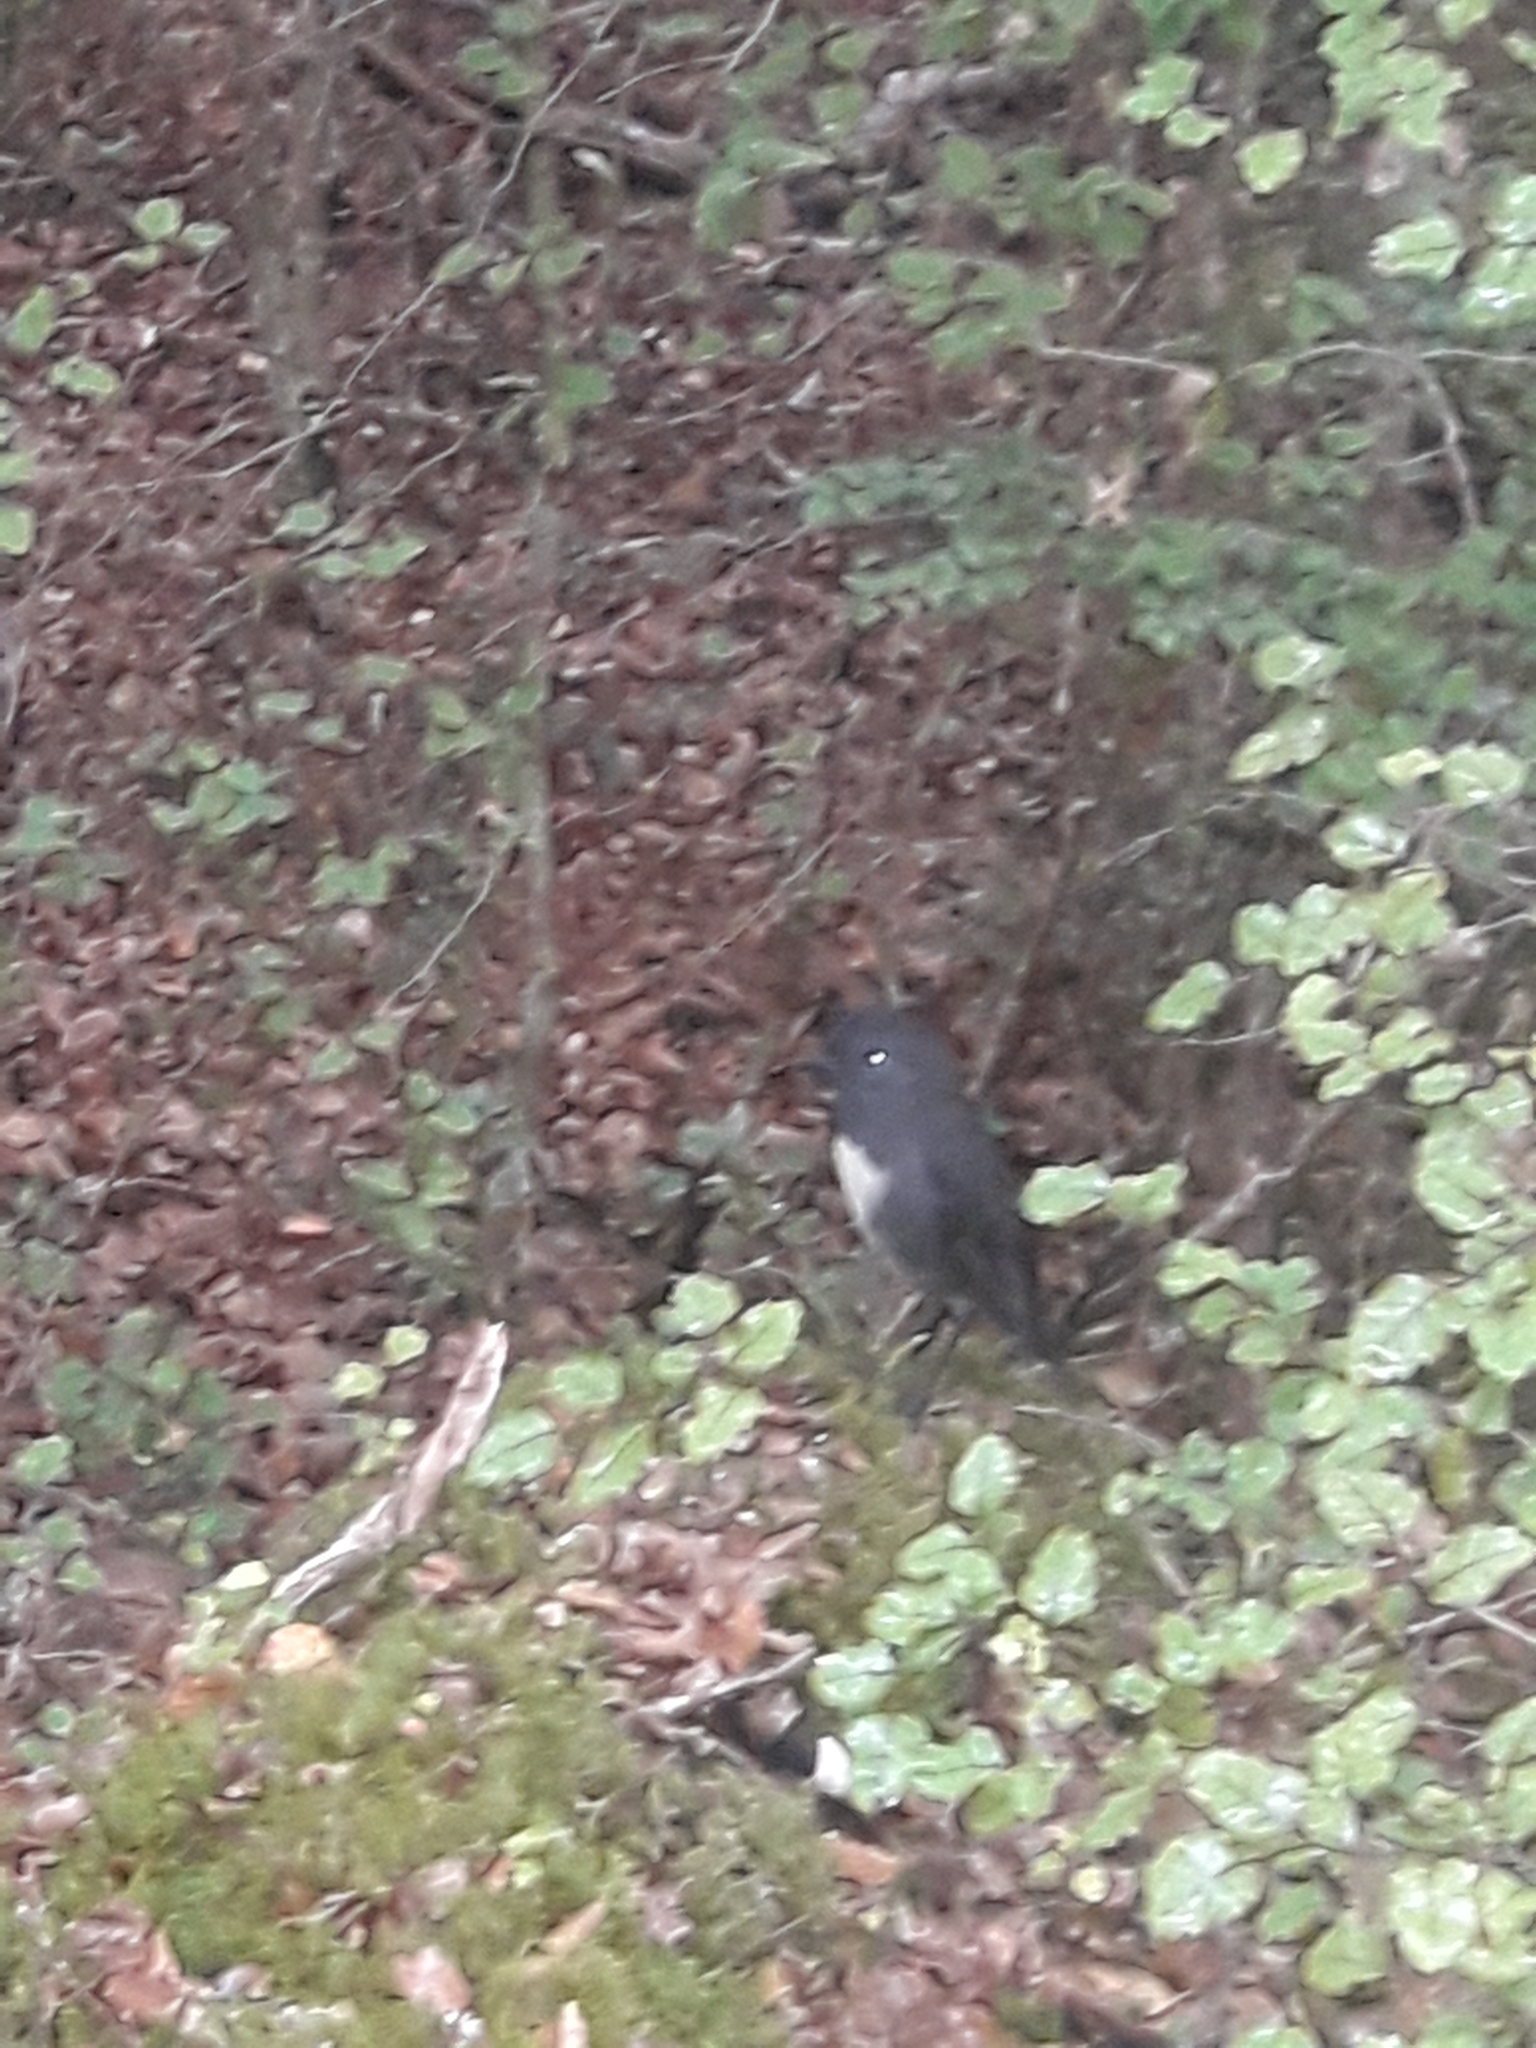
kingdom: Animalia
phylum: Chordata
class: Aves
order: Passeriformes
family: Petroicidae
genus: Petroica
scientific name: Petroica australis
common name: New zealand robin
